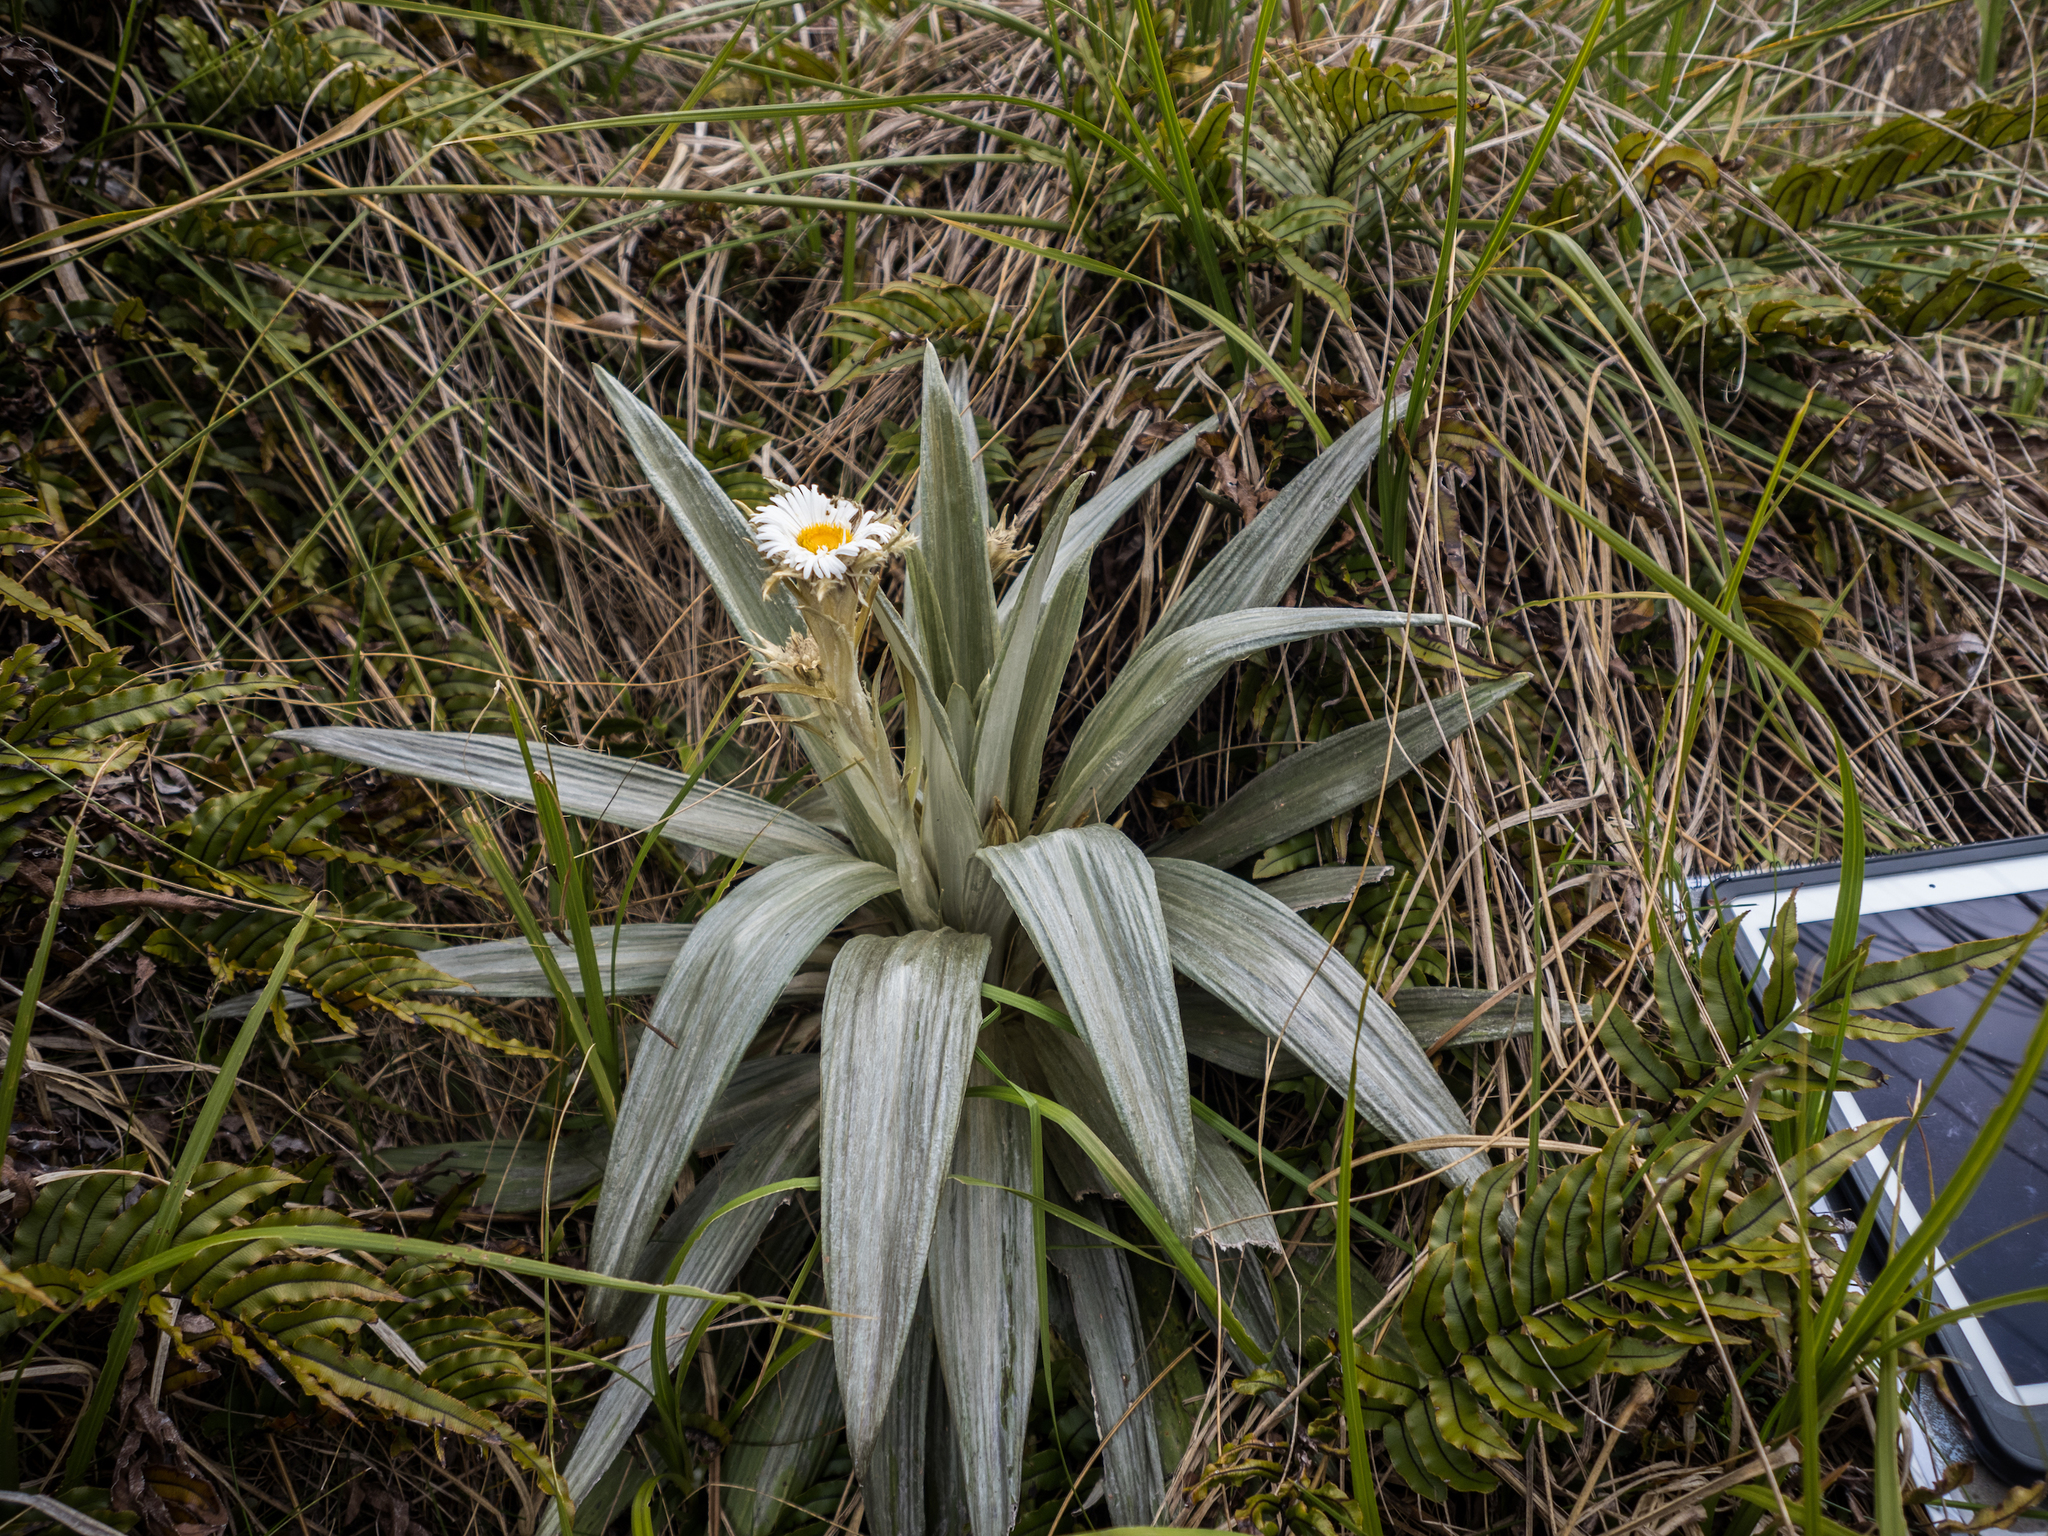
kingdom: Plantae
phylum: Tracheophyta
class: Magnoliopsida
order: Asterales
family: Asteraceae
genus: Celmisia
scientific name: Celmisia semicordata
